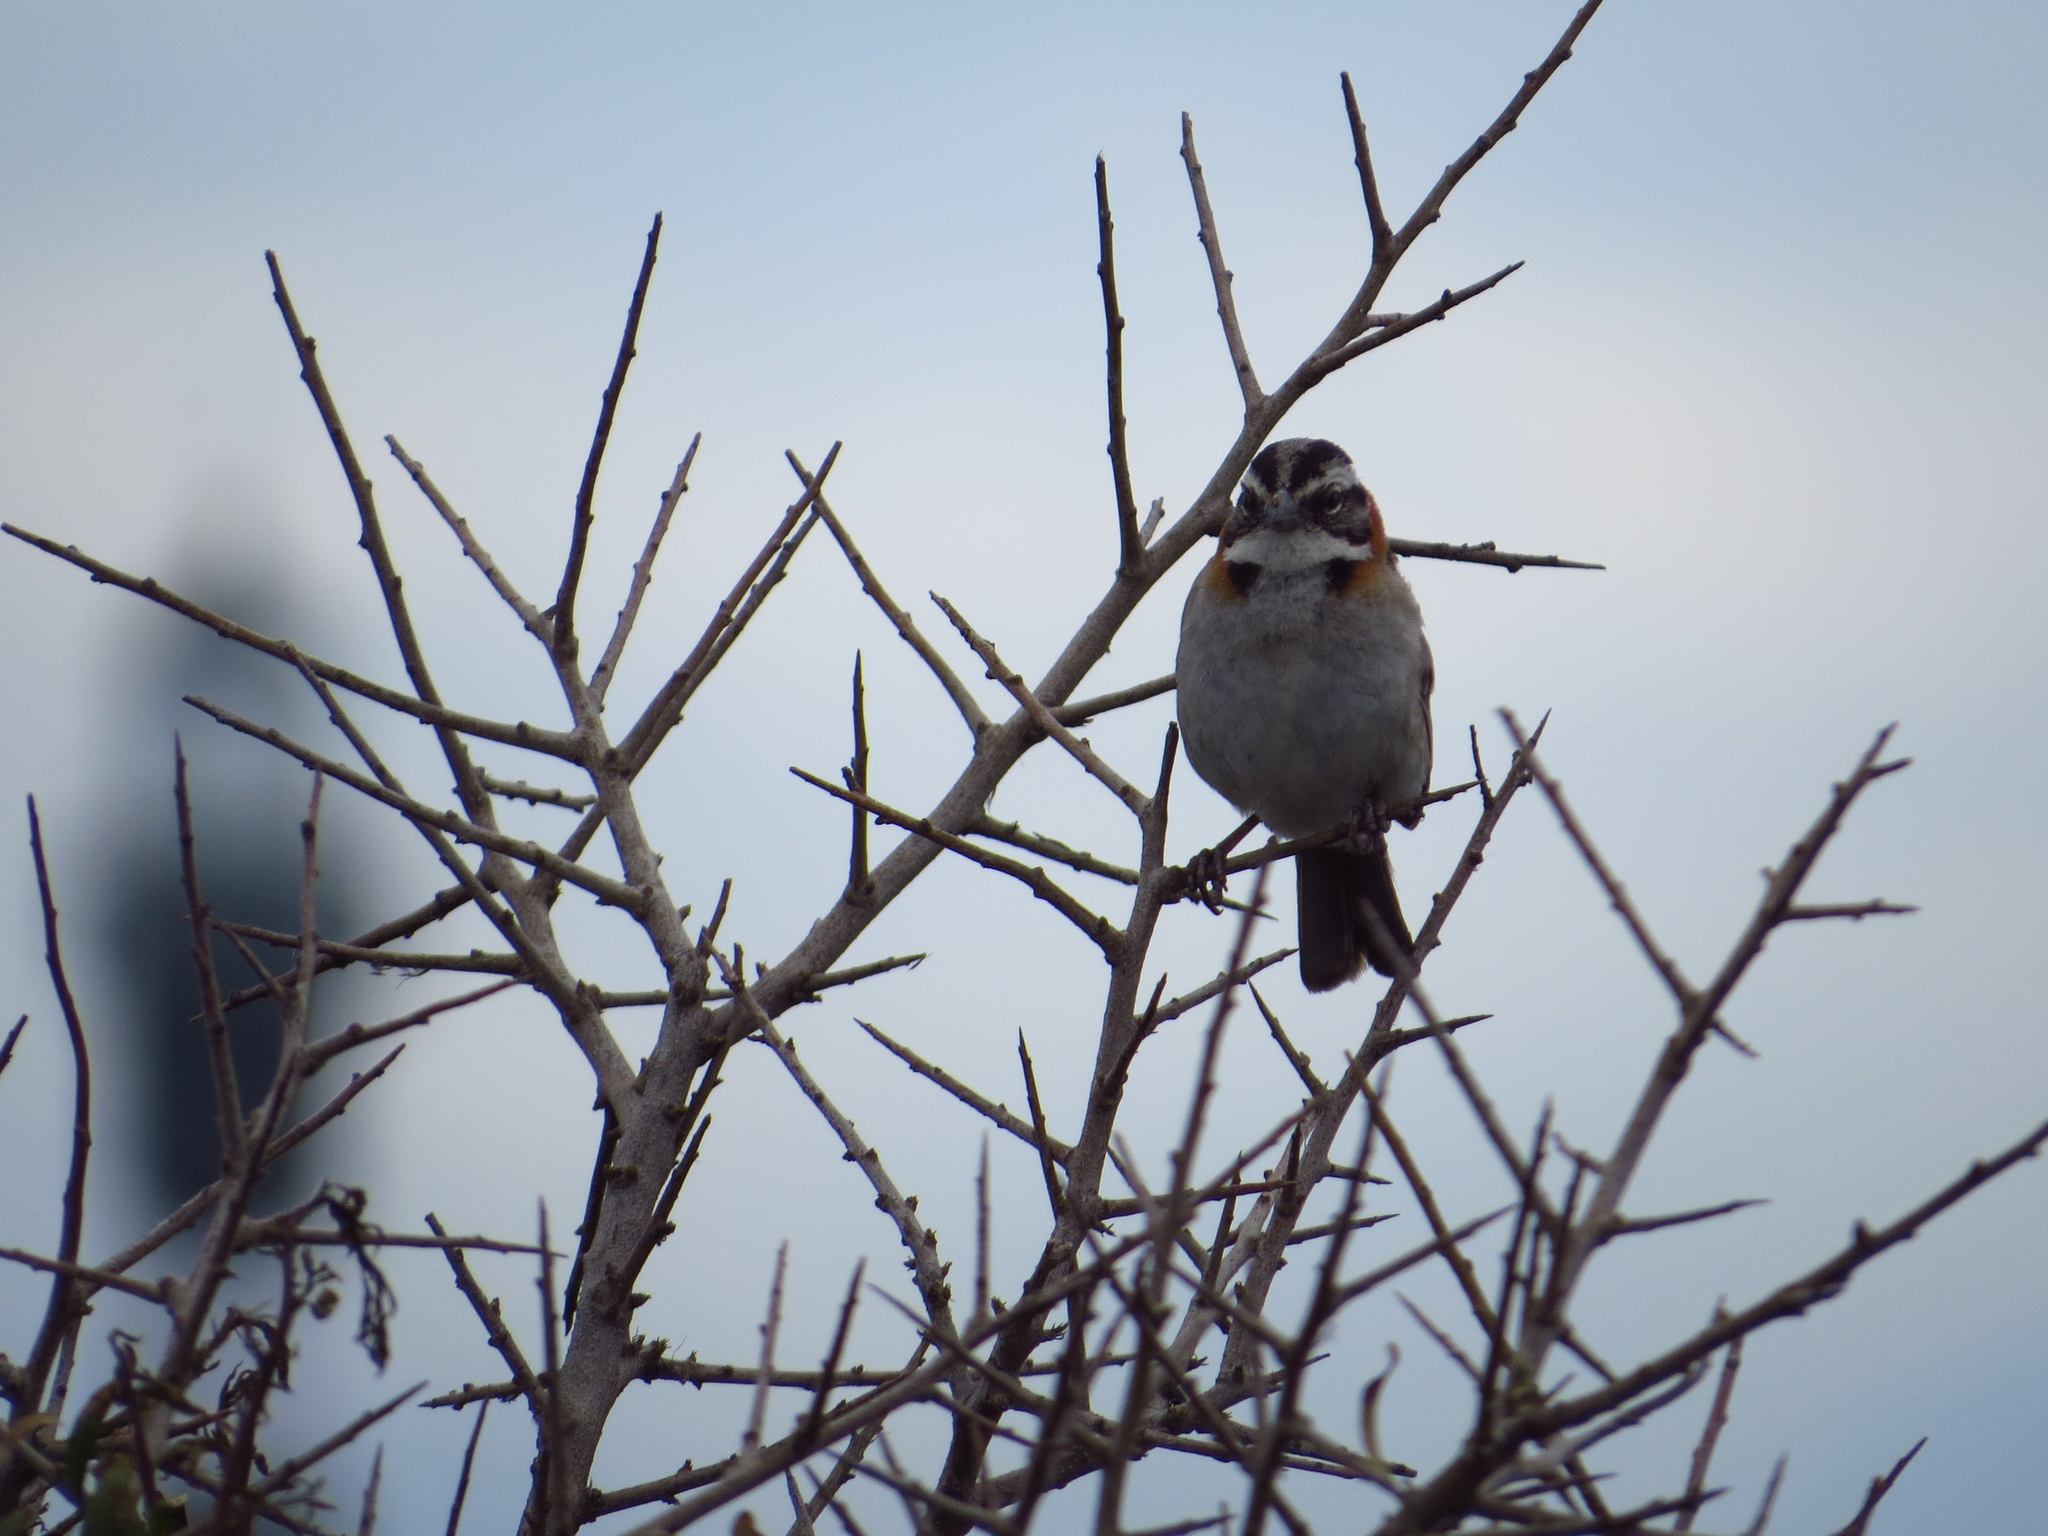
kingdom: Animalia
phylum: Chordata
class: Aves
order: Passeriformes
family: Passerellidae
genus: Zonotrichia
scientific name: Zonotrichia capensis
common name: Rufous-collared sparrow
